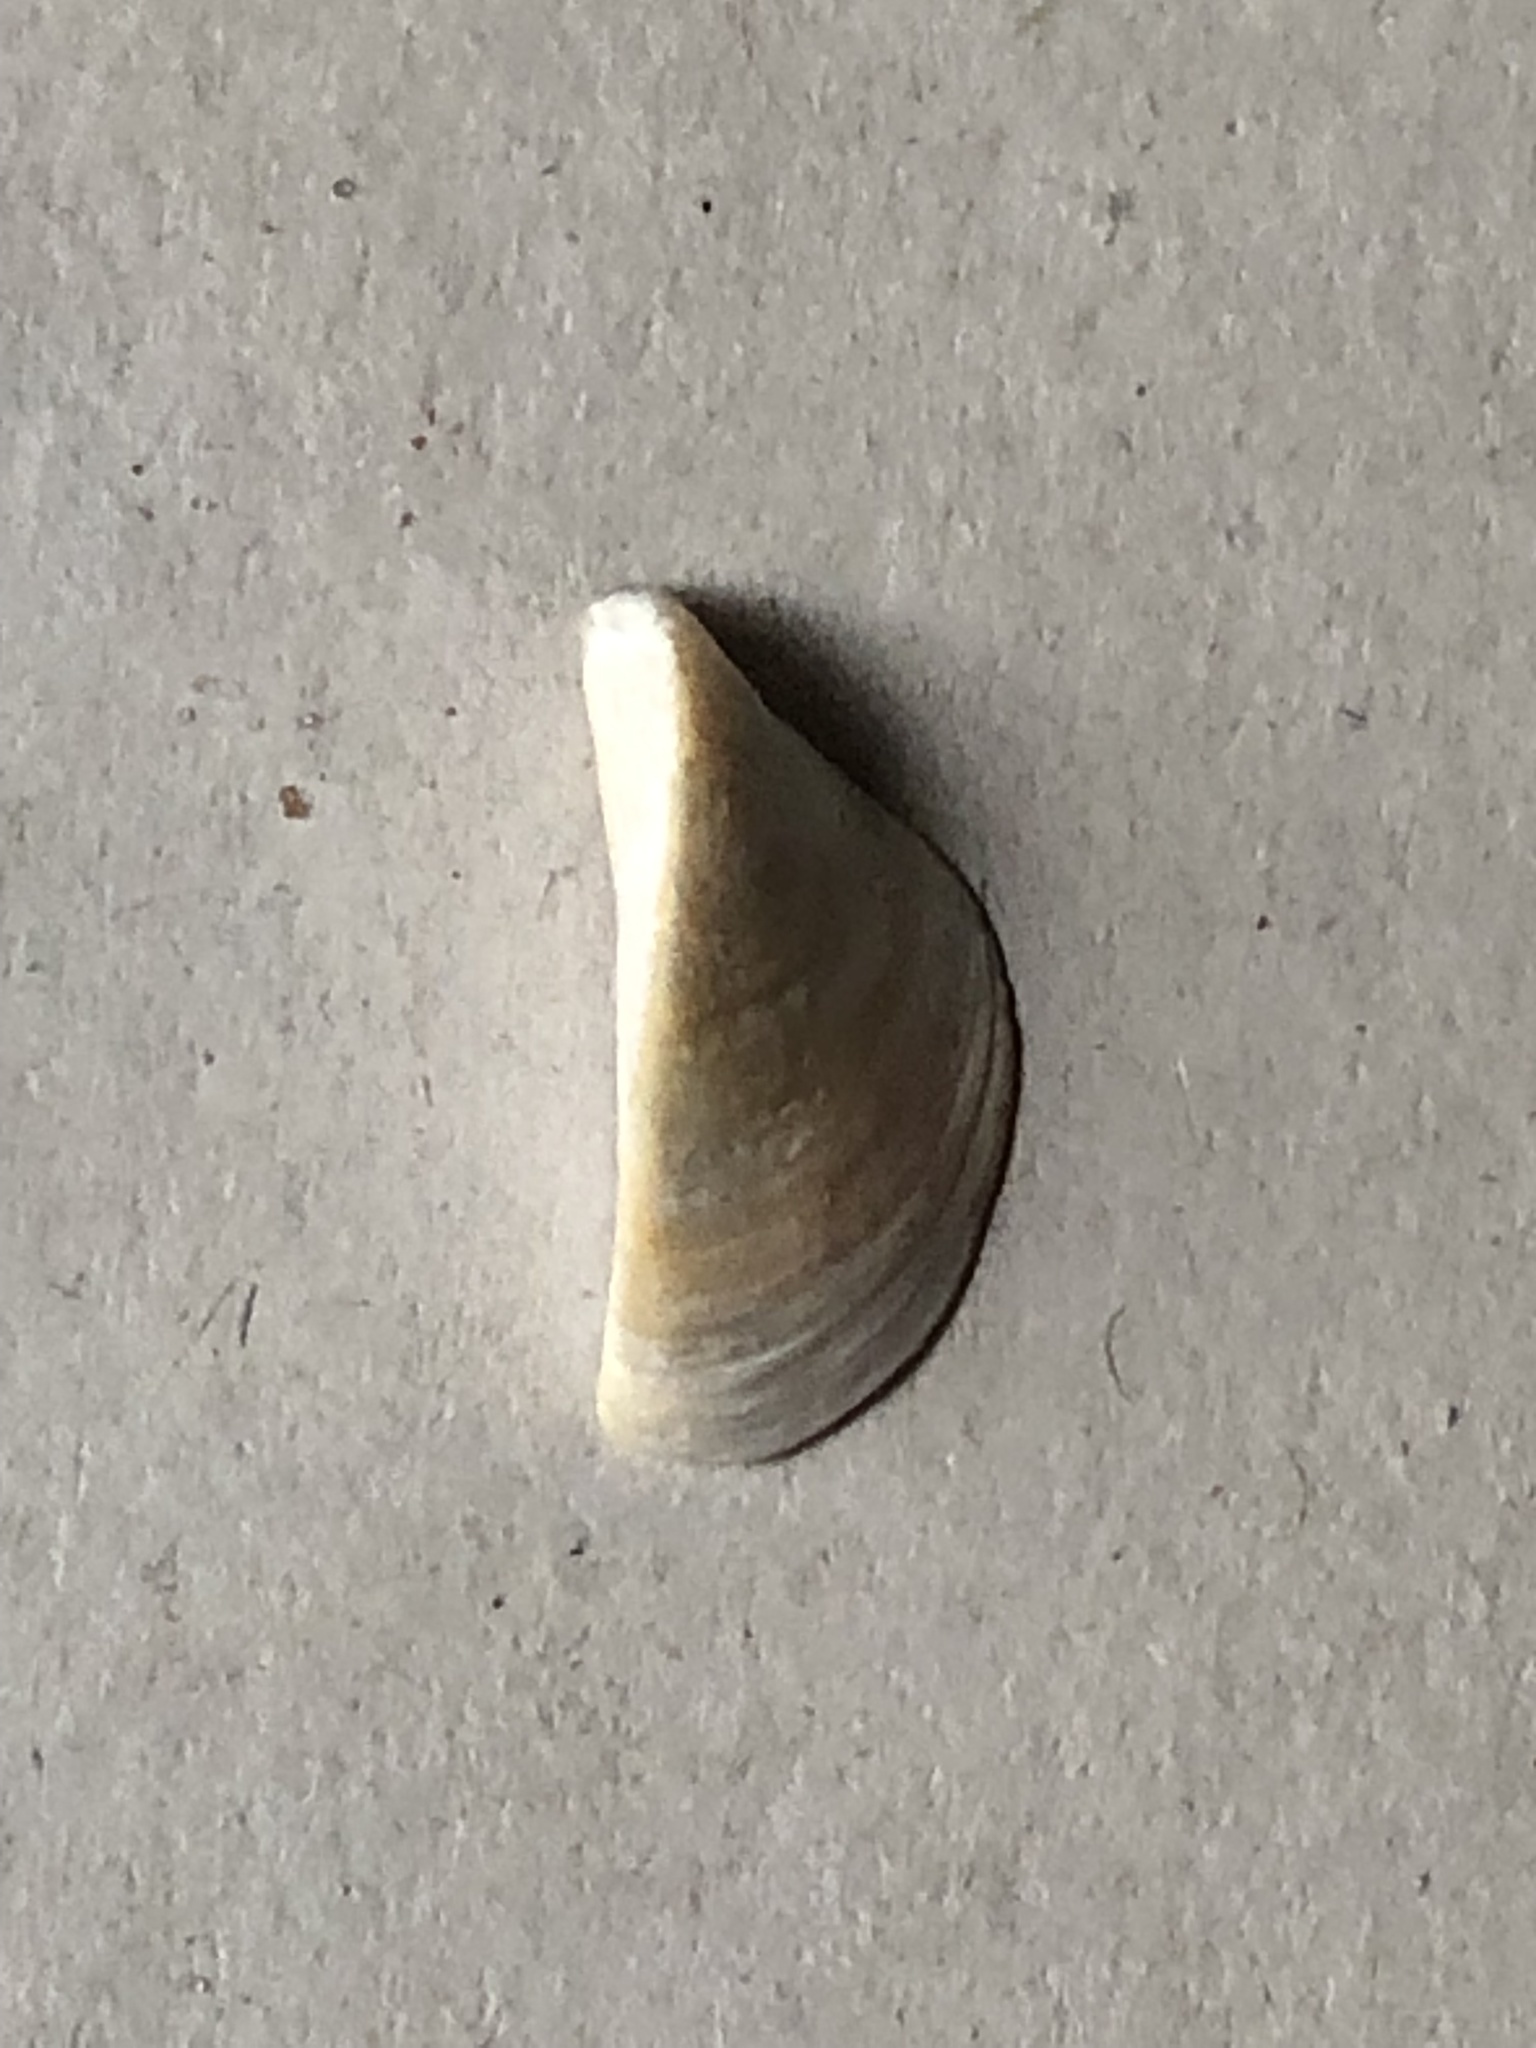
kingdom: Animalia
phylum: Mollusca
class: Bivalvia
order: Myida
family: Dreissenidae
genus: Dreissena
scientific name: Dreissena polymorpha
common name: Zebra mussel
